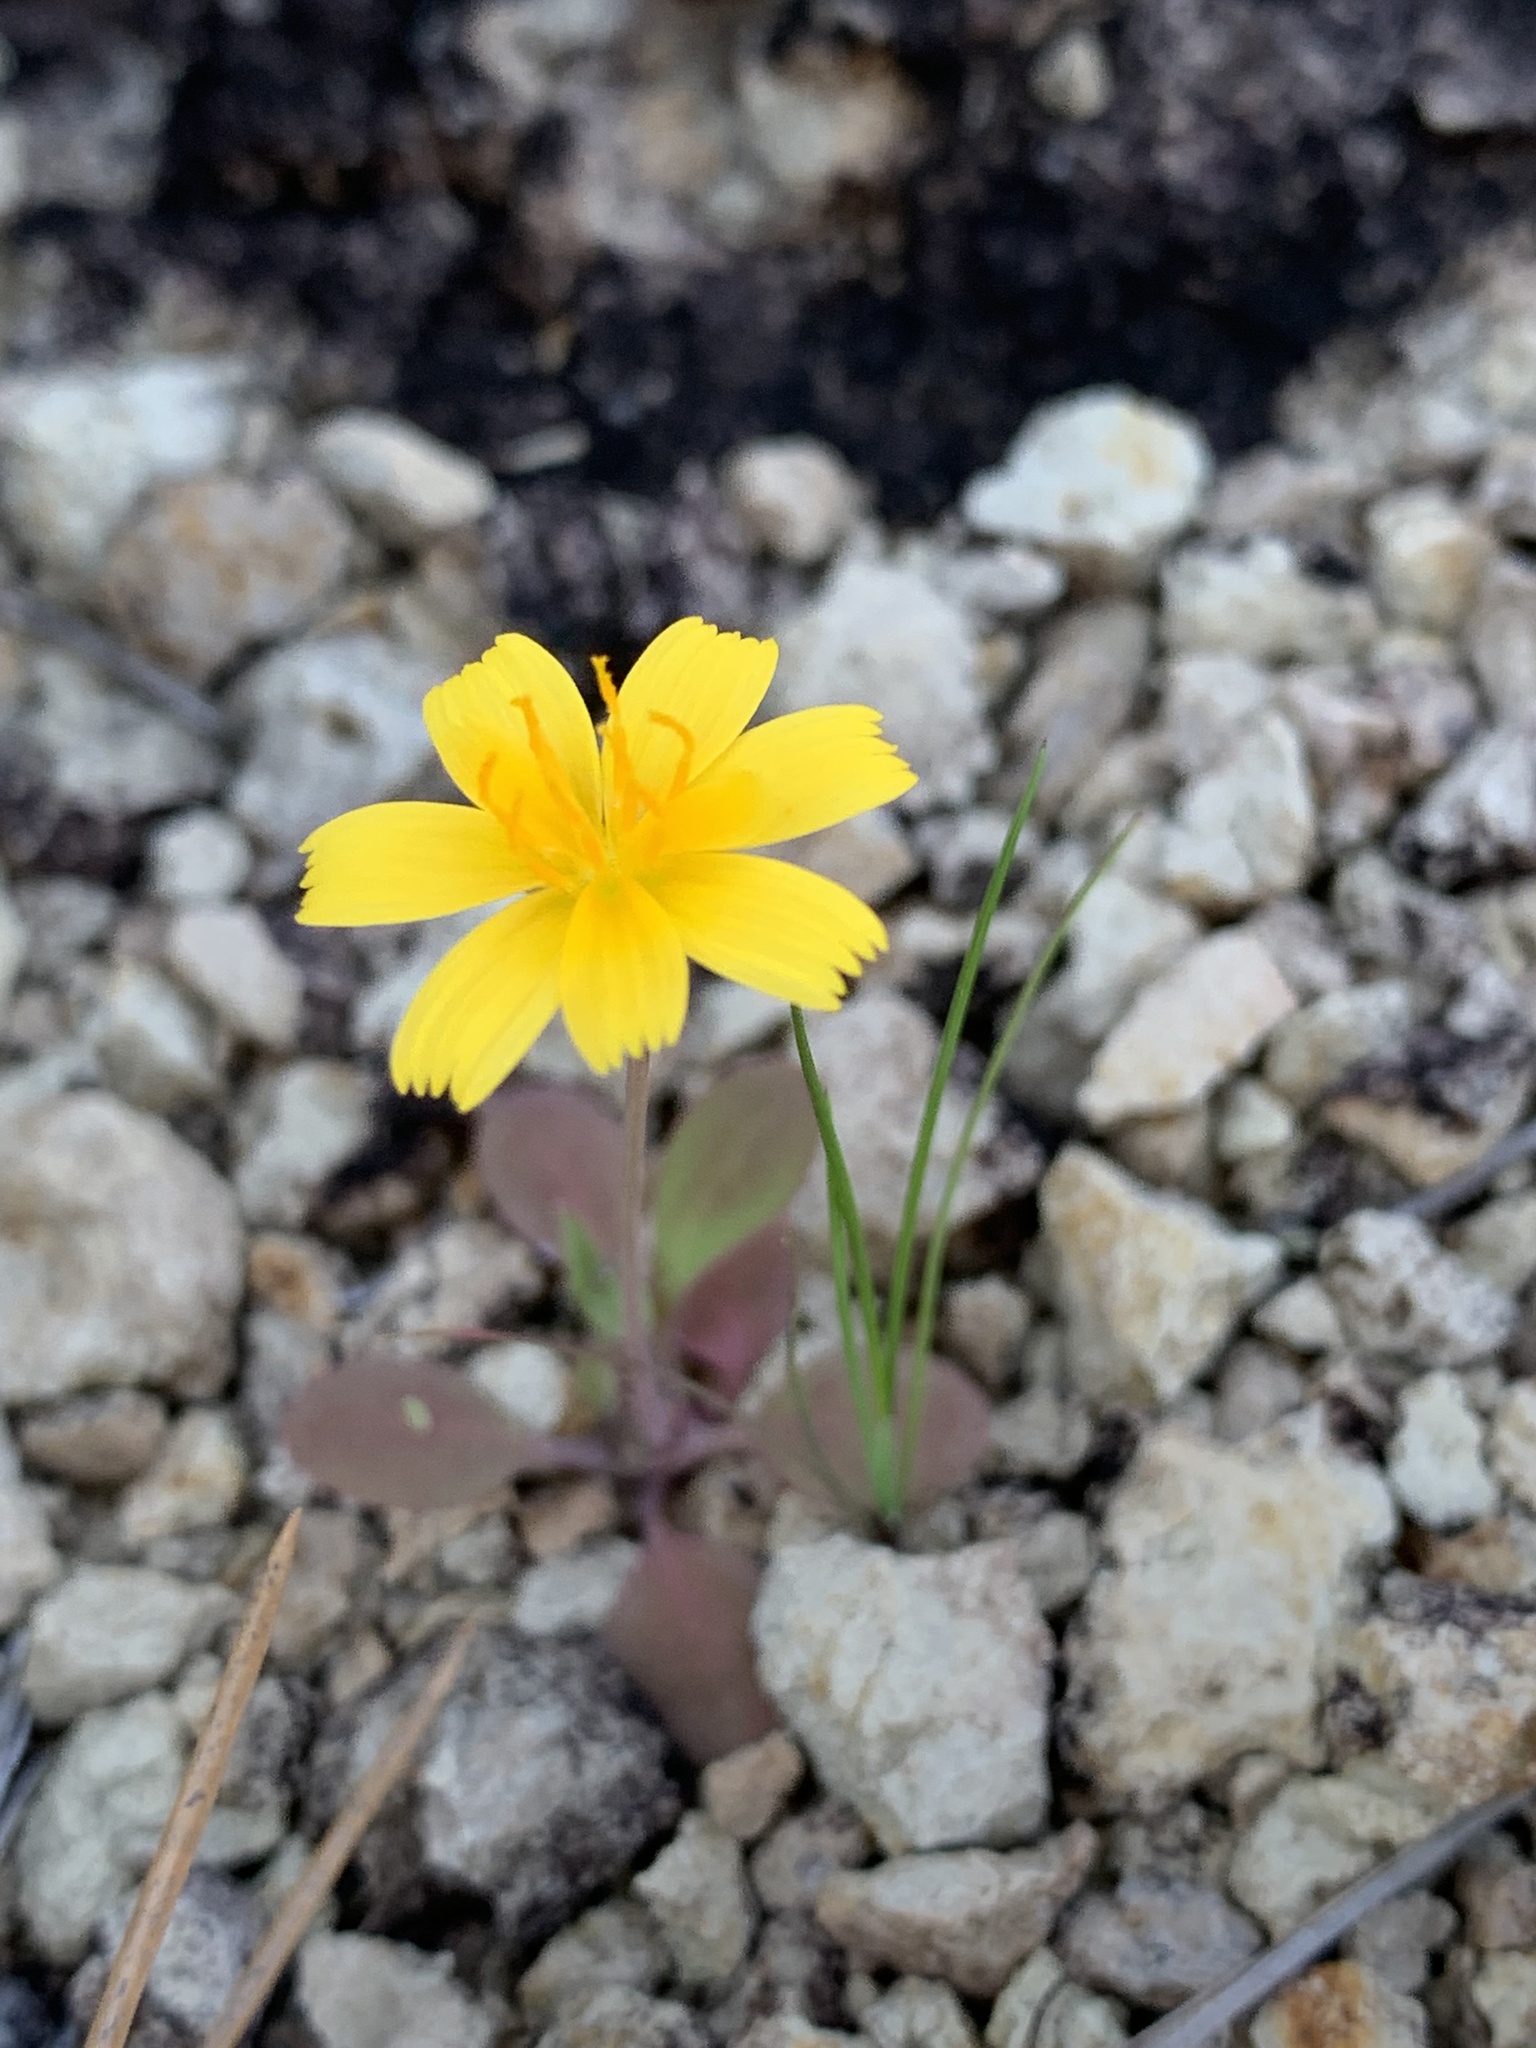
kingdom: Plantae
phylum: Tracheophyta
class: Magnoliopsida
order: Asterales
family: Asteraceae
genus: Krigia
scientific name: Krigia occidentalis
